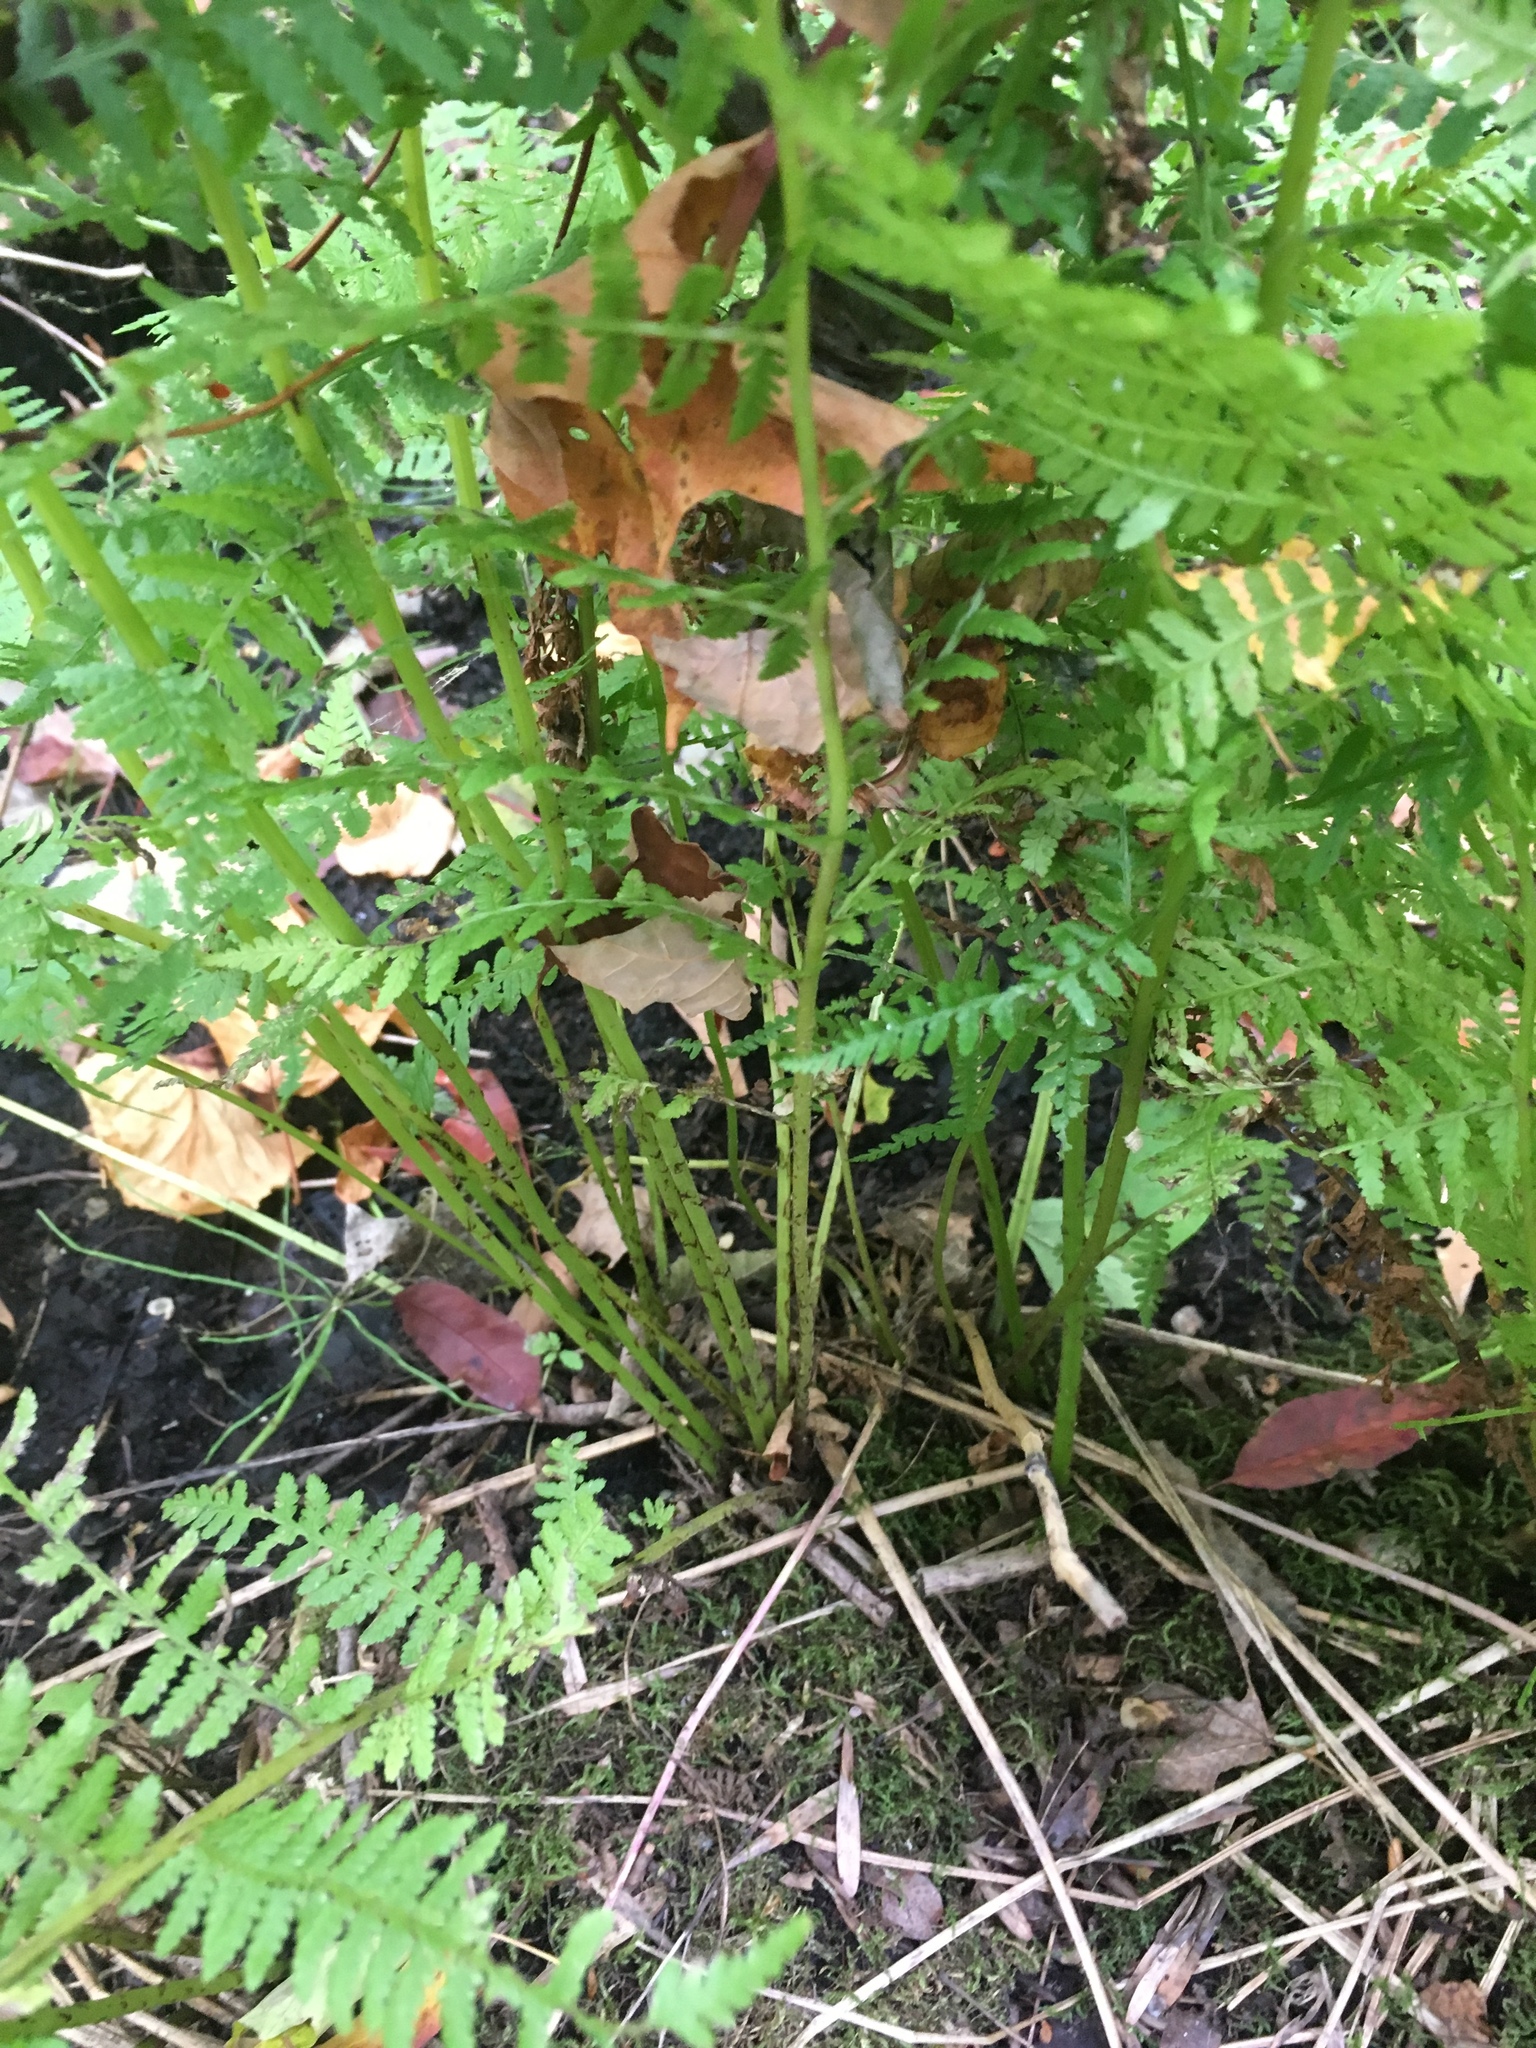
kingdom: Plantae
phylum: Tracheophyta
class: Polypodiopsida
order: Polypodiales
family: Athyriaceae
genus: Athyrium
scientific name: Athyrium angustum
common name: Northern lady fern
